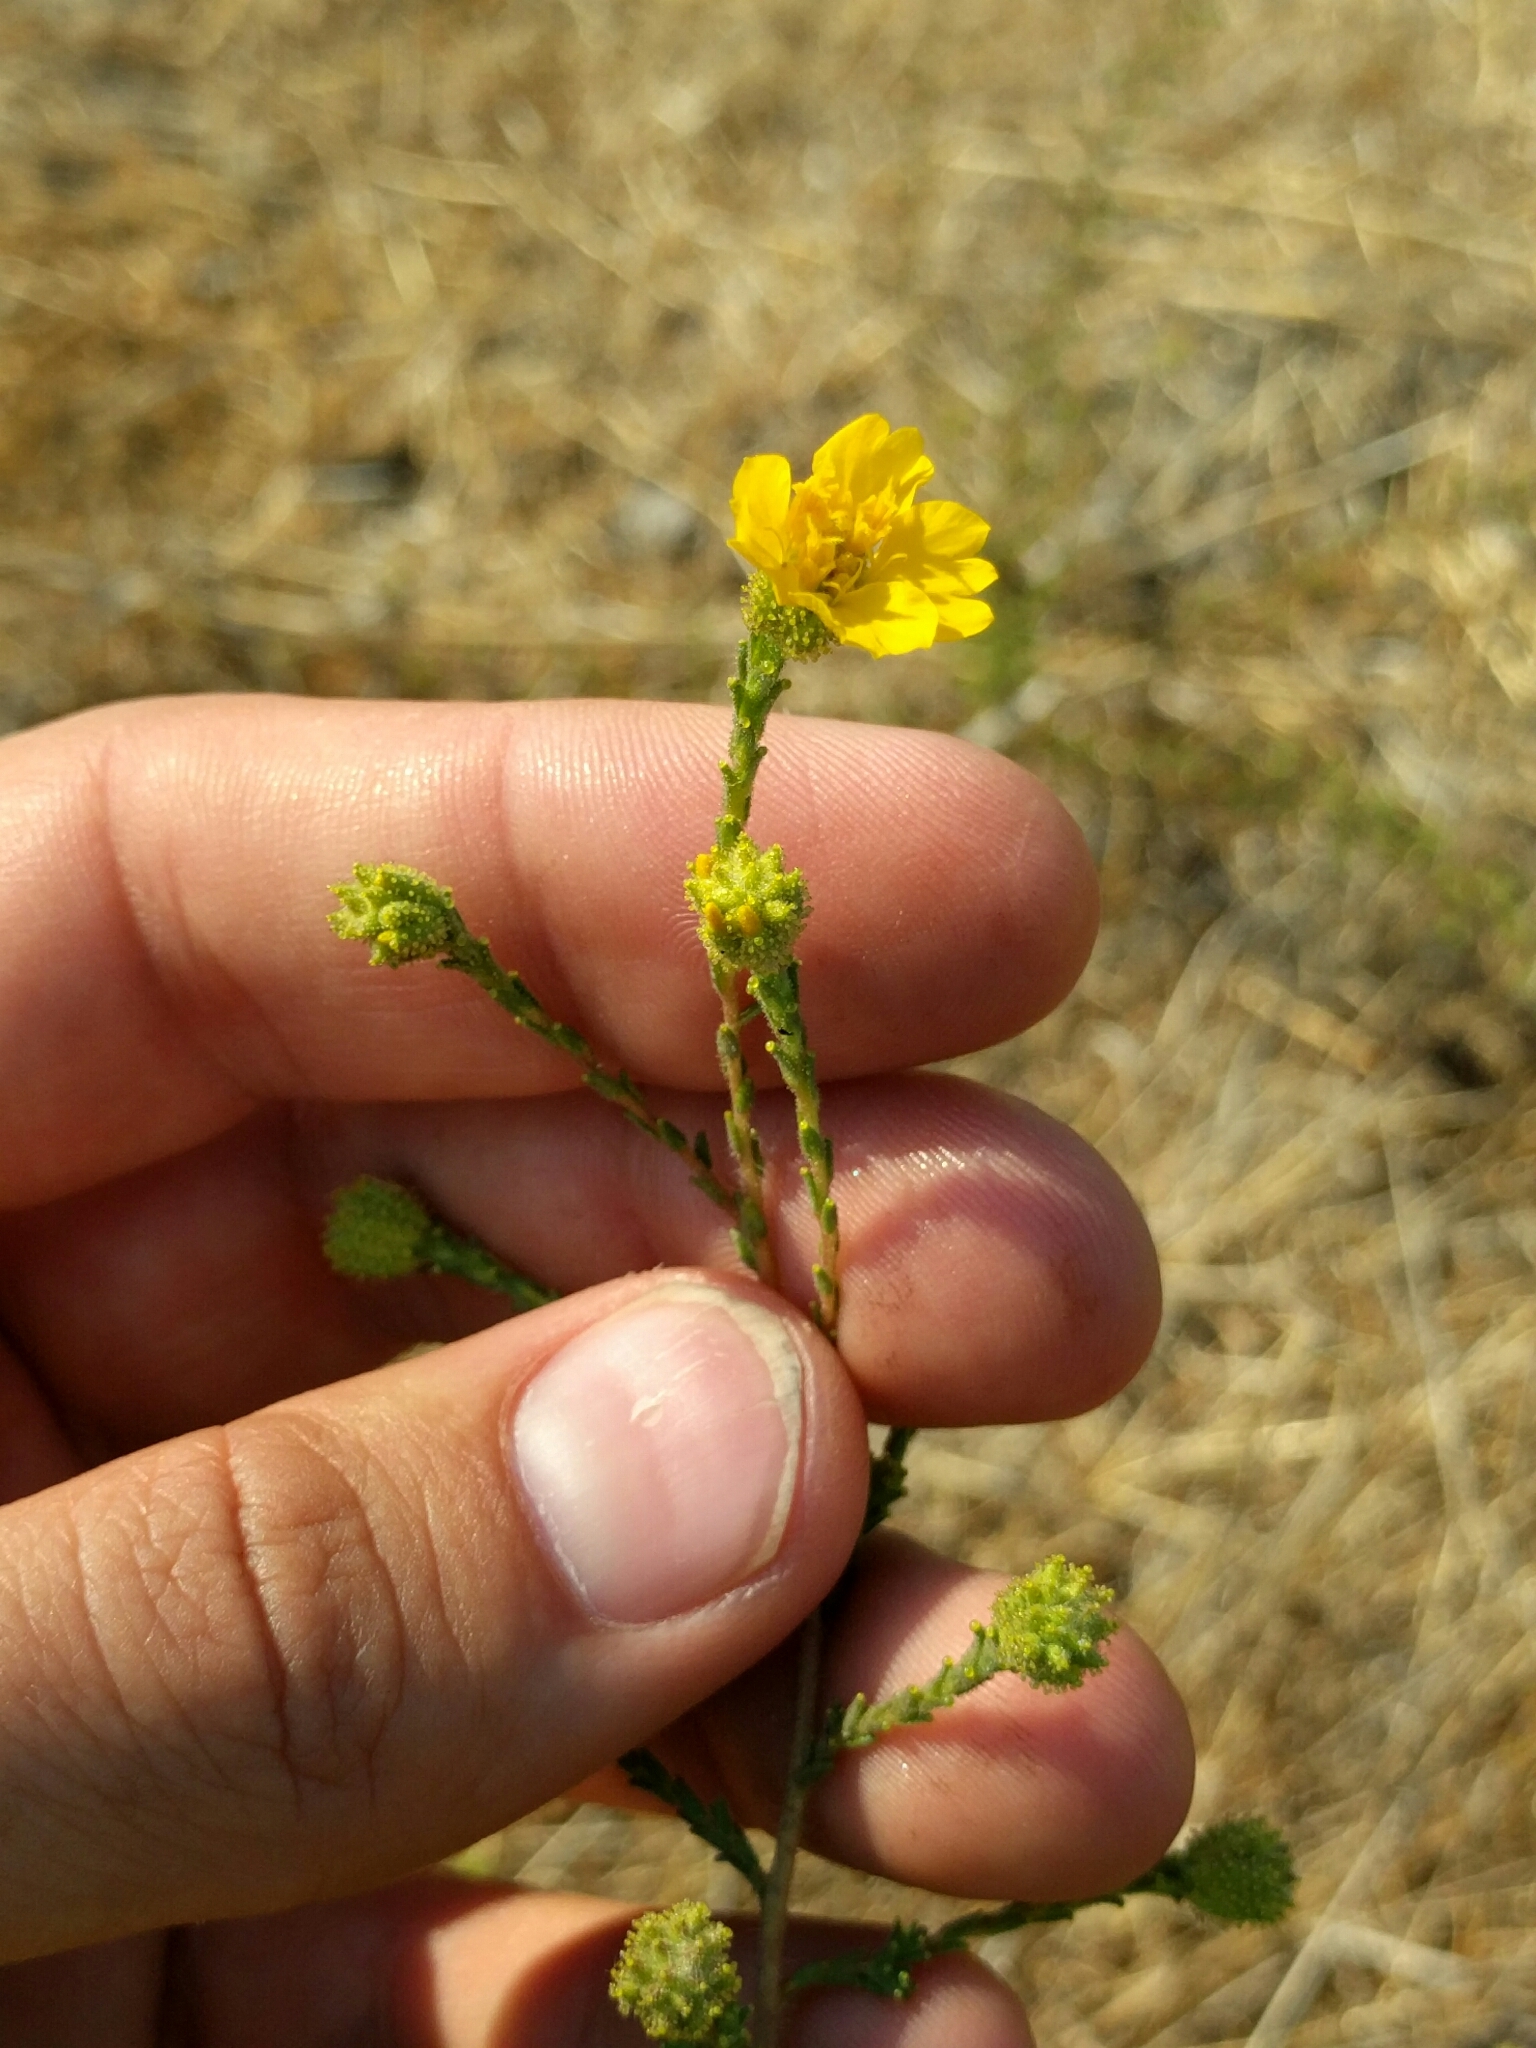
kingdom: Plantae
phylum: Tracheophyta
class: Magnoliopsida
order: Asterales
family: Asteraceae
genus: Holocarpha
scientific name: Holocarpha heermannii
